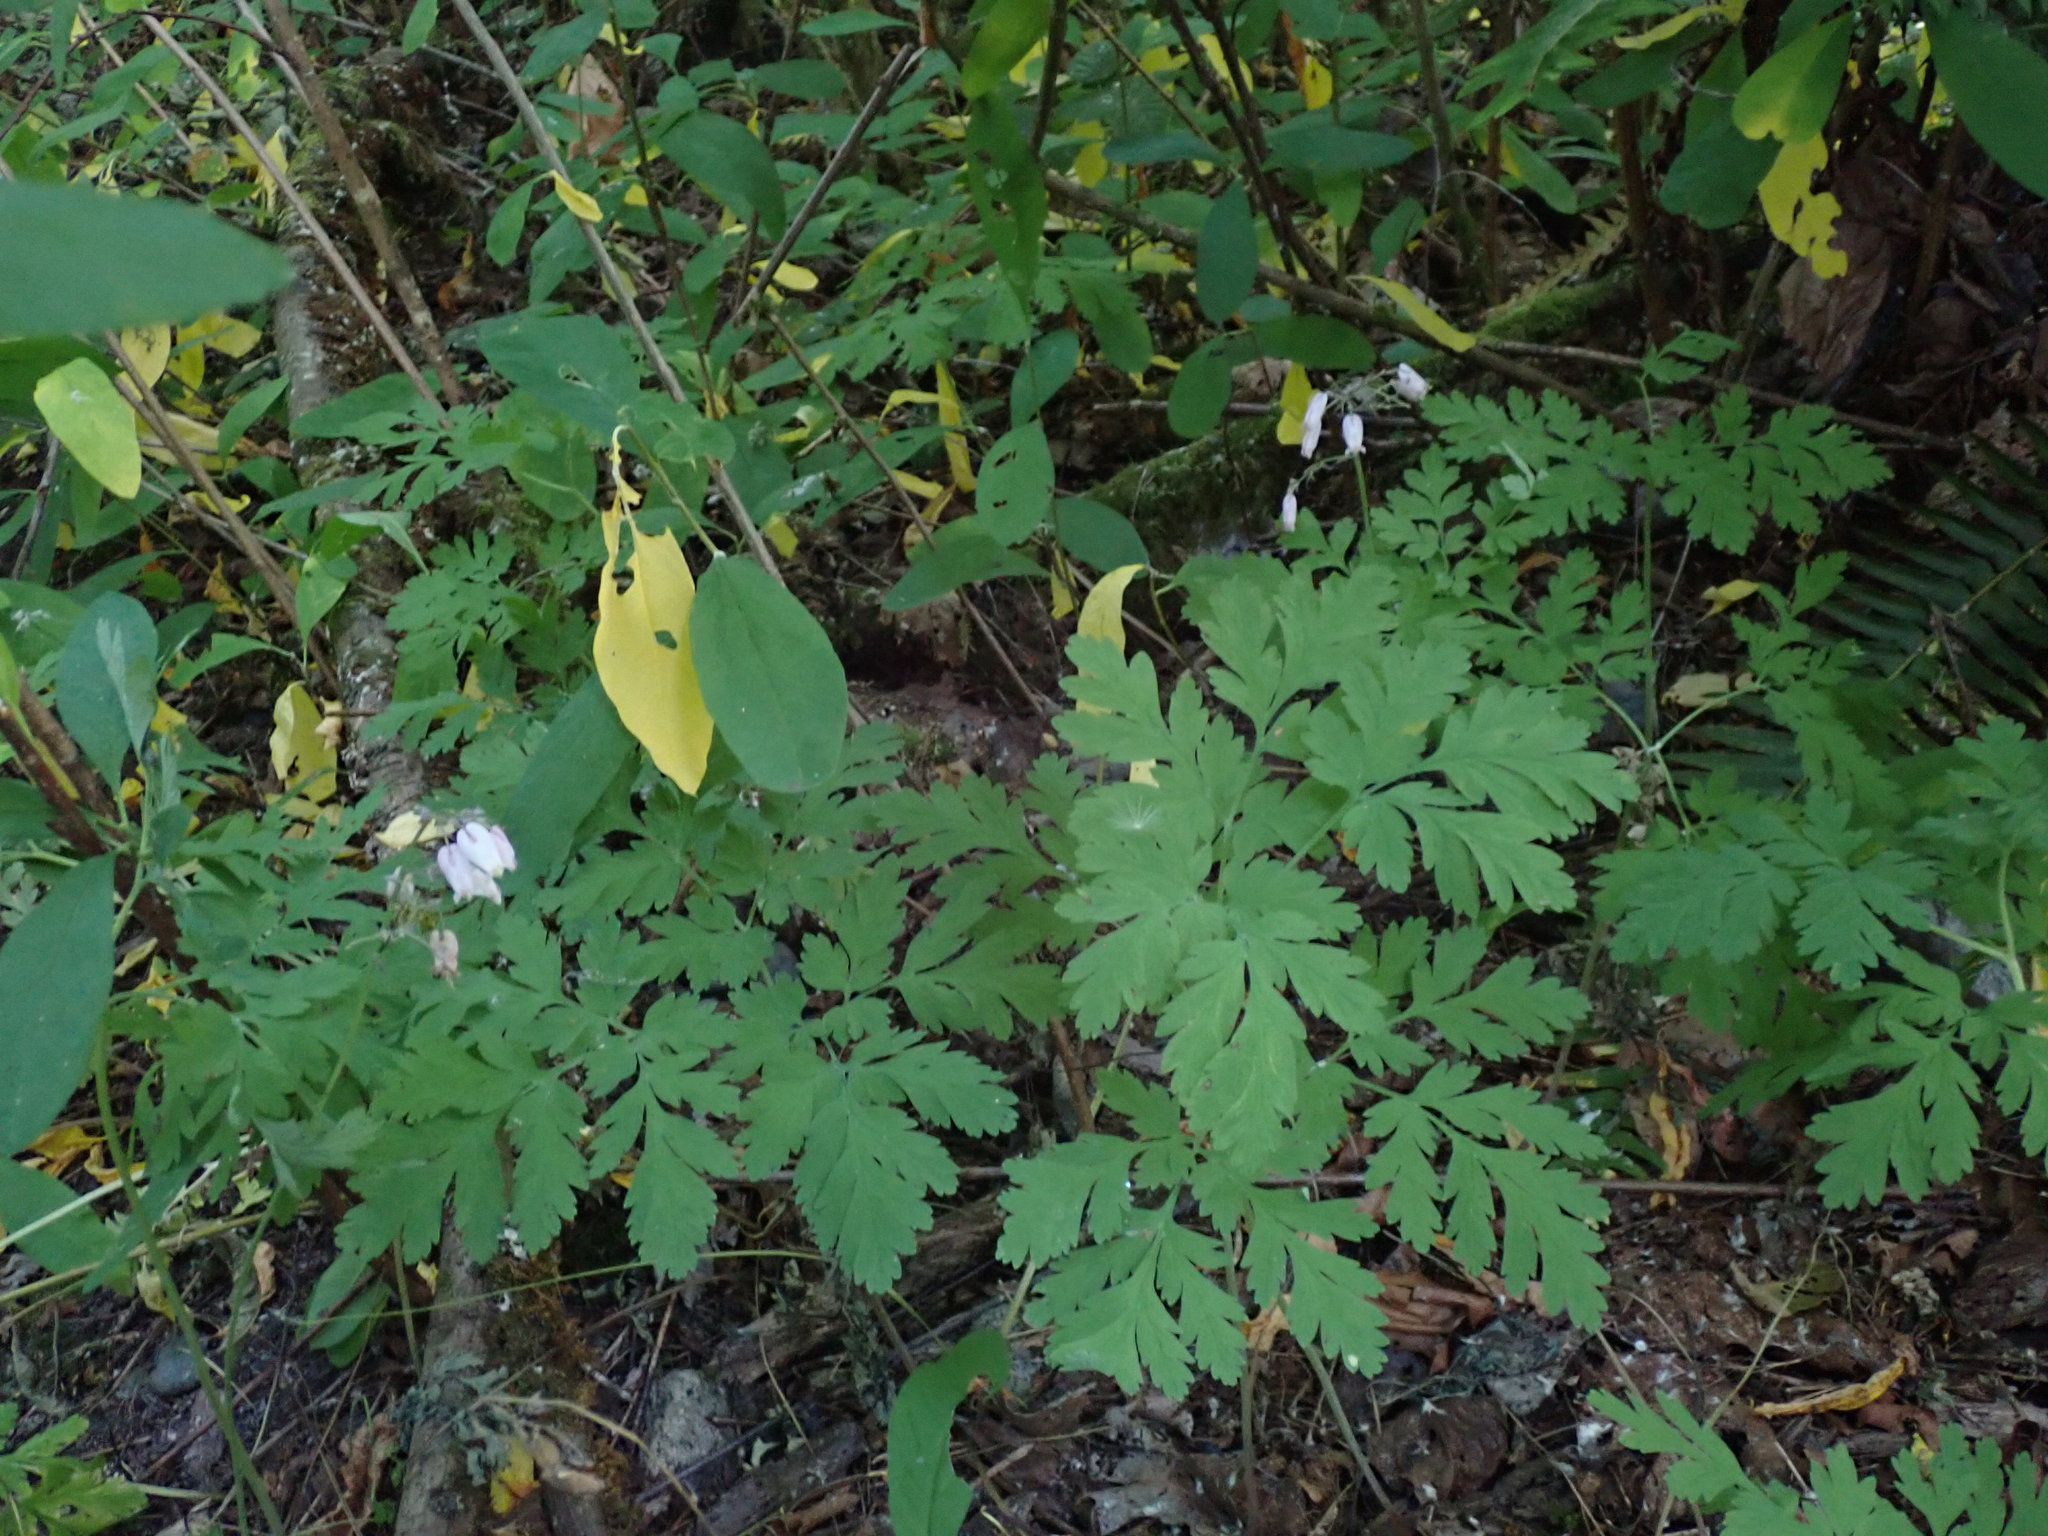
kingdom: Plantae
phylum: Tracheophyta
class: Magnoliopsida
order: Ranunculales
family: Papaveraceae
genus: Dicentra
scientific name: Dicentra formosa
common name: Bleeding-heart
